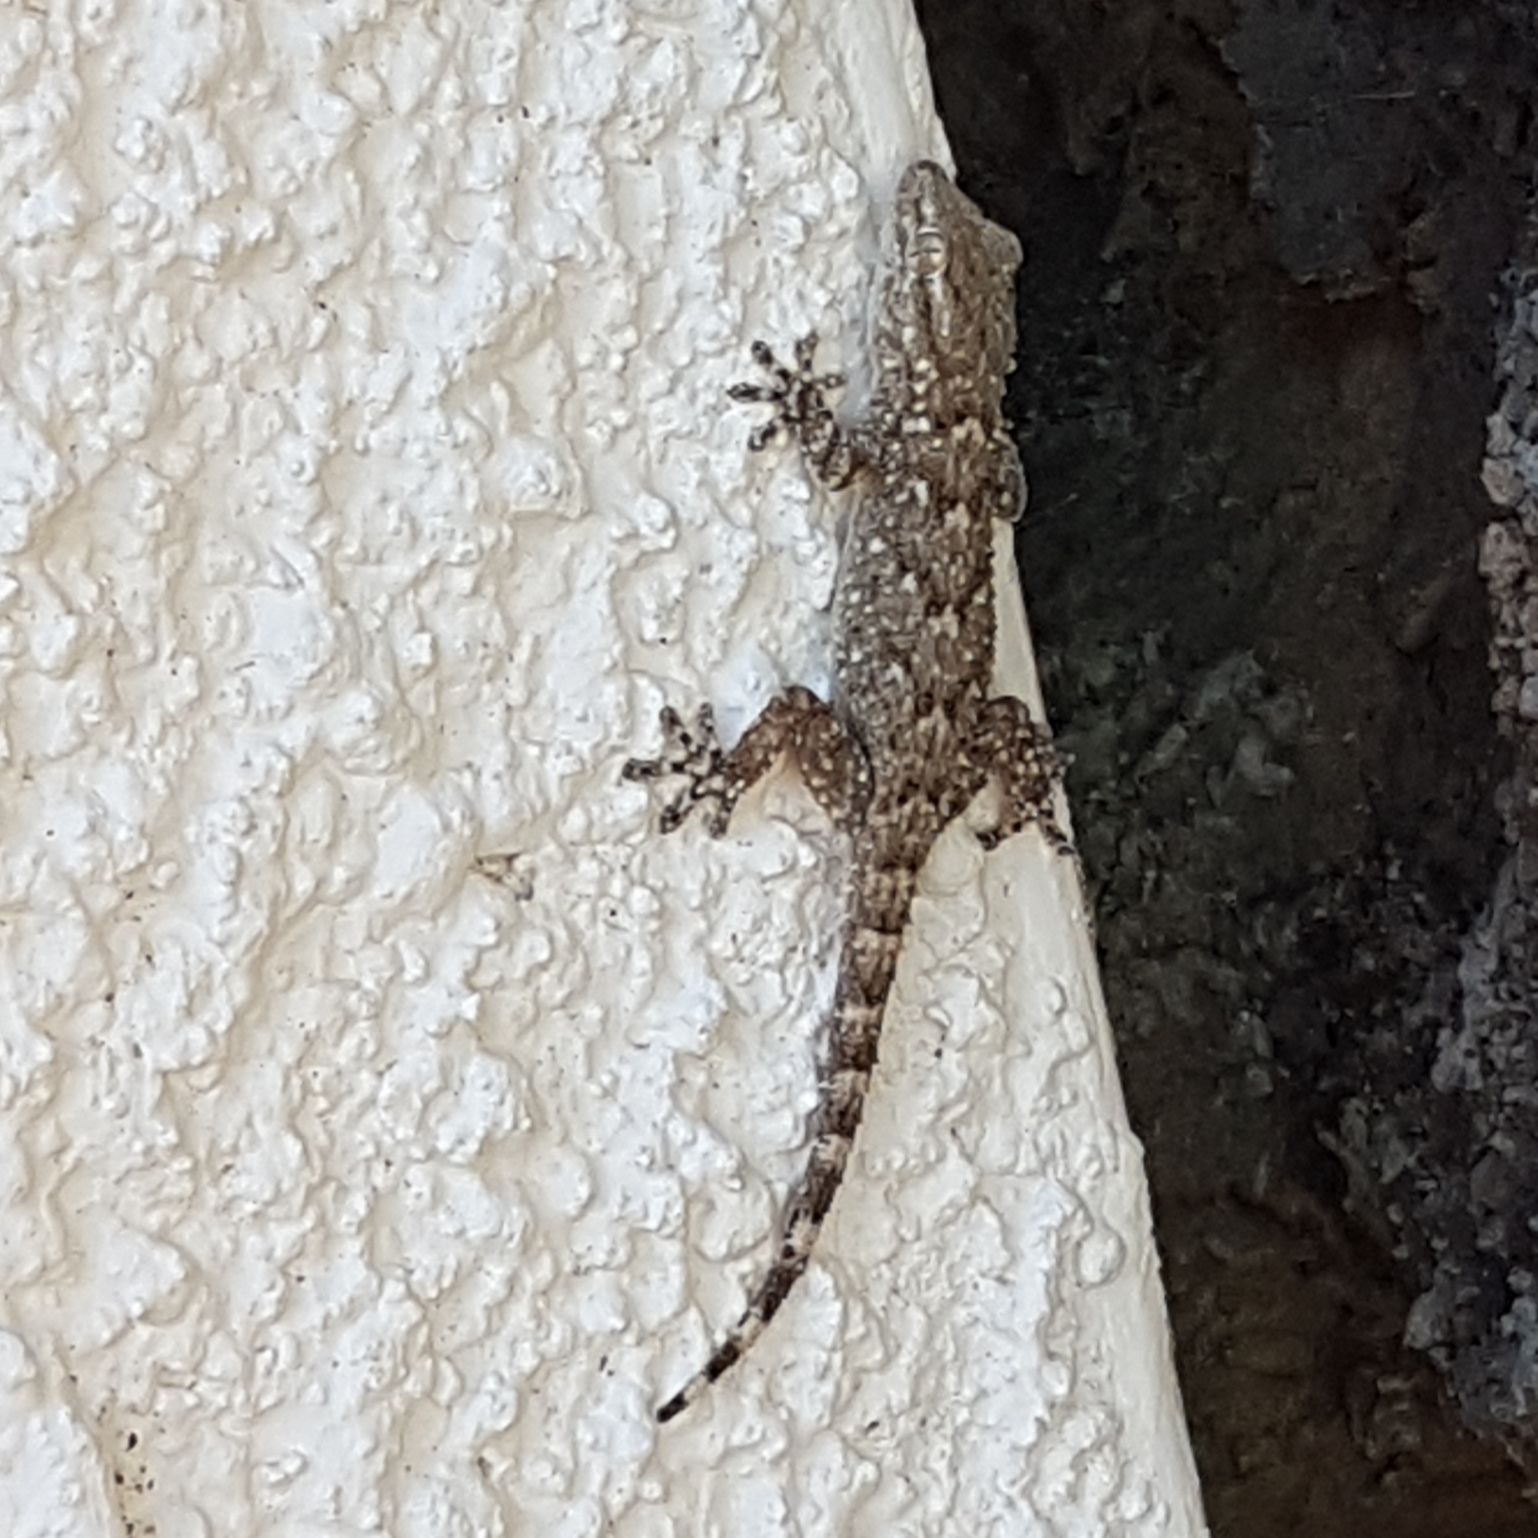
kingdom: Animalia
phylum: Chordata
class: Squamata
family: Phyllodactylidae
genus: Tarentola
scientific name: Tarentola mauritanica
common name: Moorish gecko
